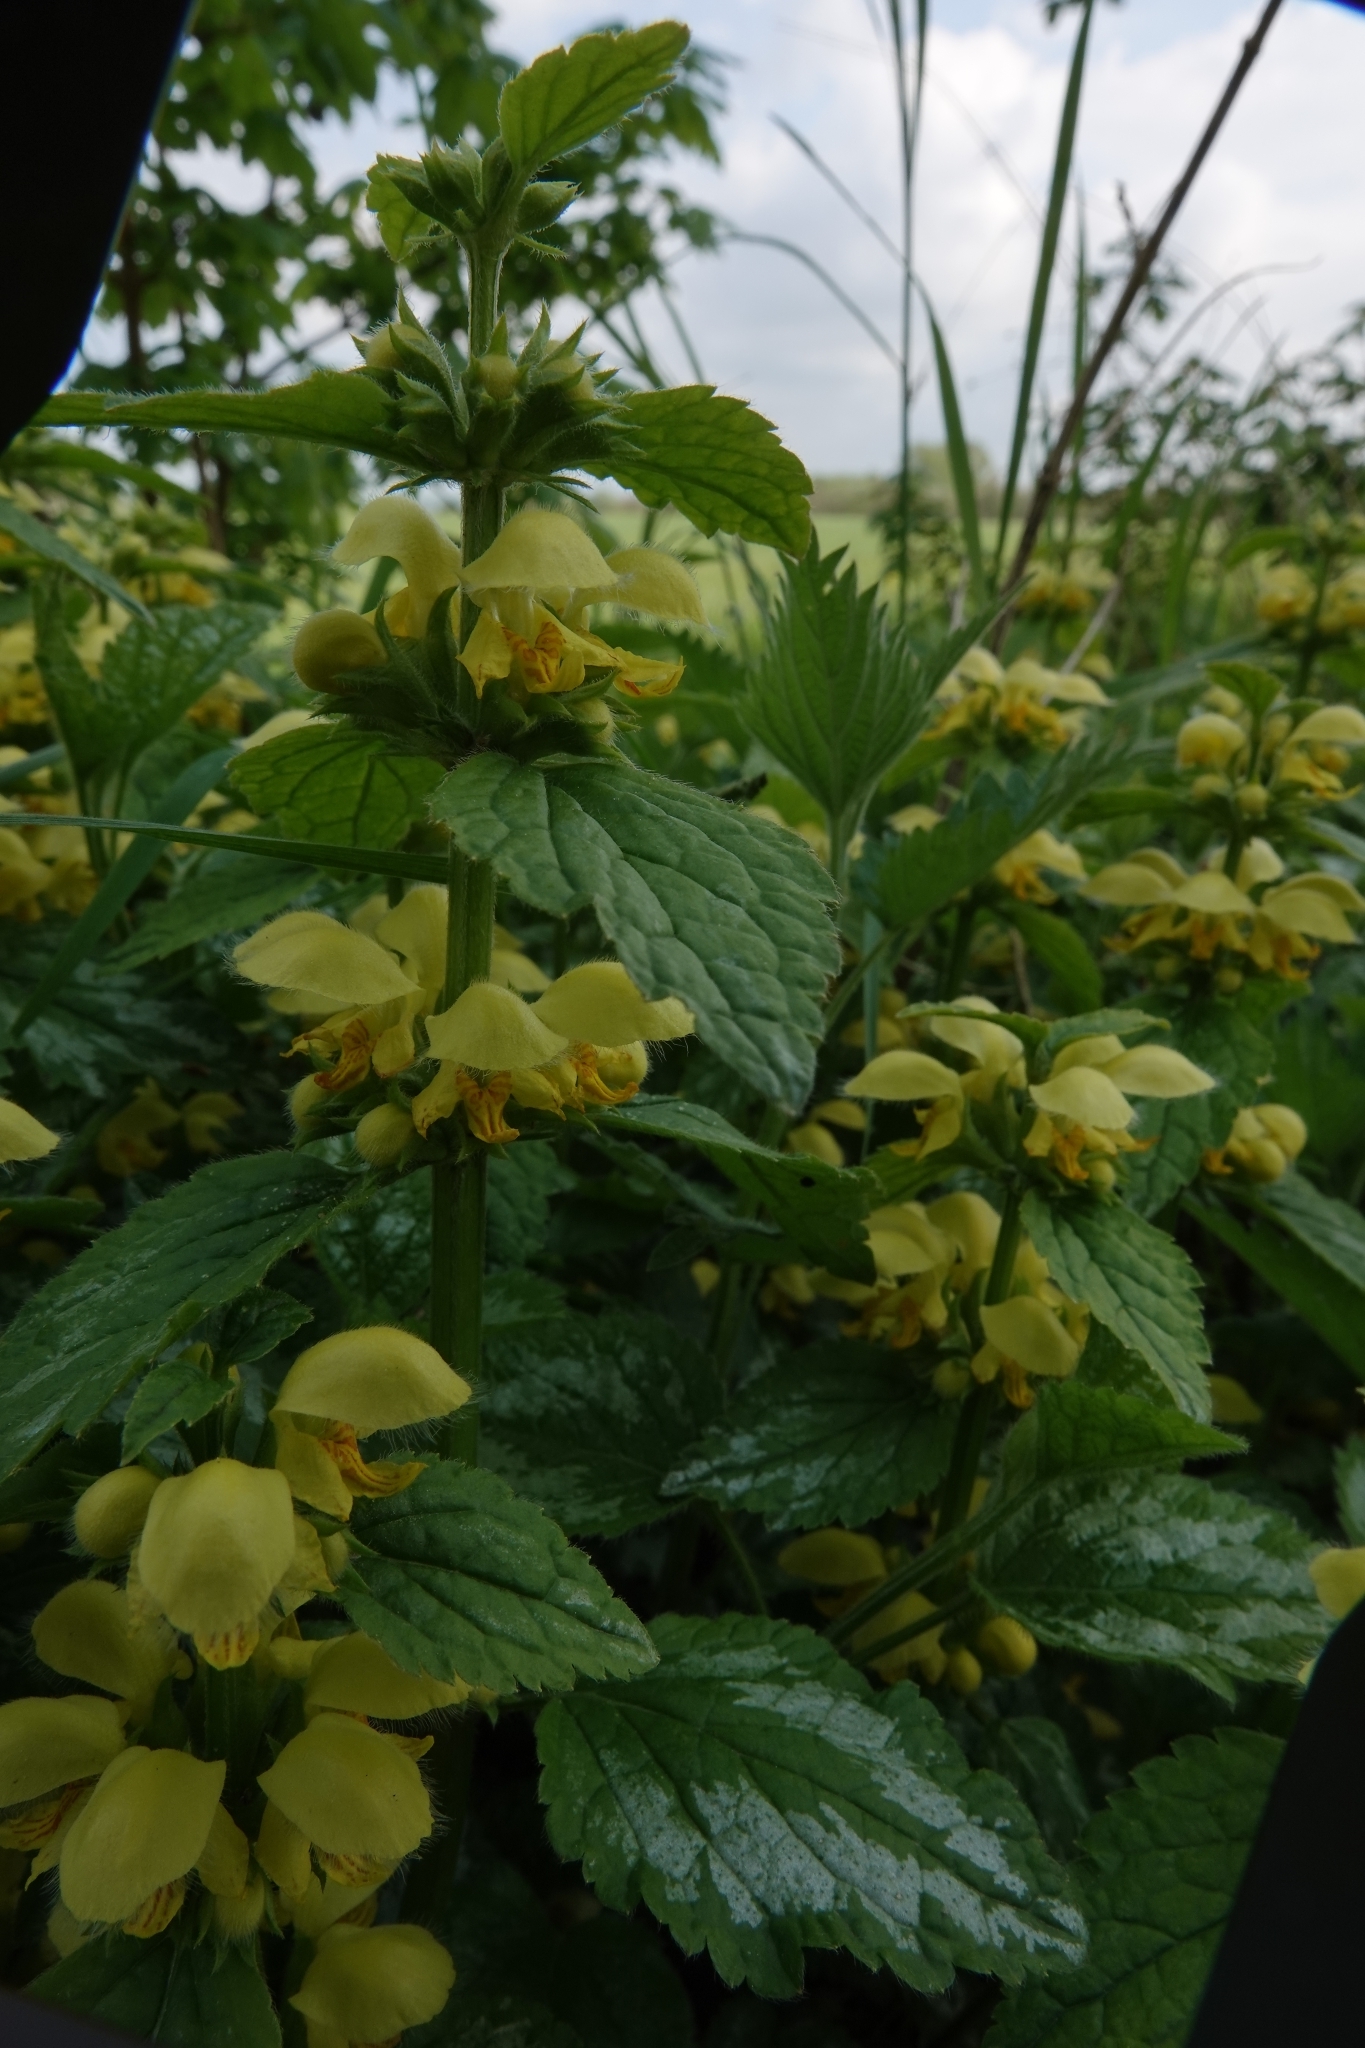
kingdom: Plantae
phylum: Tracheophyta
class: Magnoliopsida
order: Lamiales
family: Lamiaceae
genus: Lamium
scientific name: Lamium galeobdolon
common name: Yellow archangel
